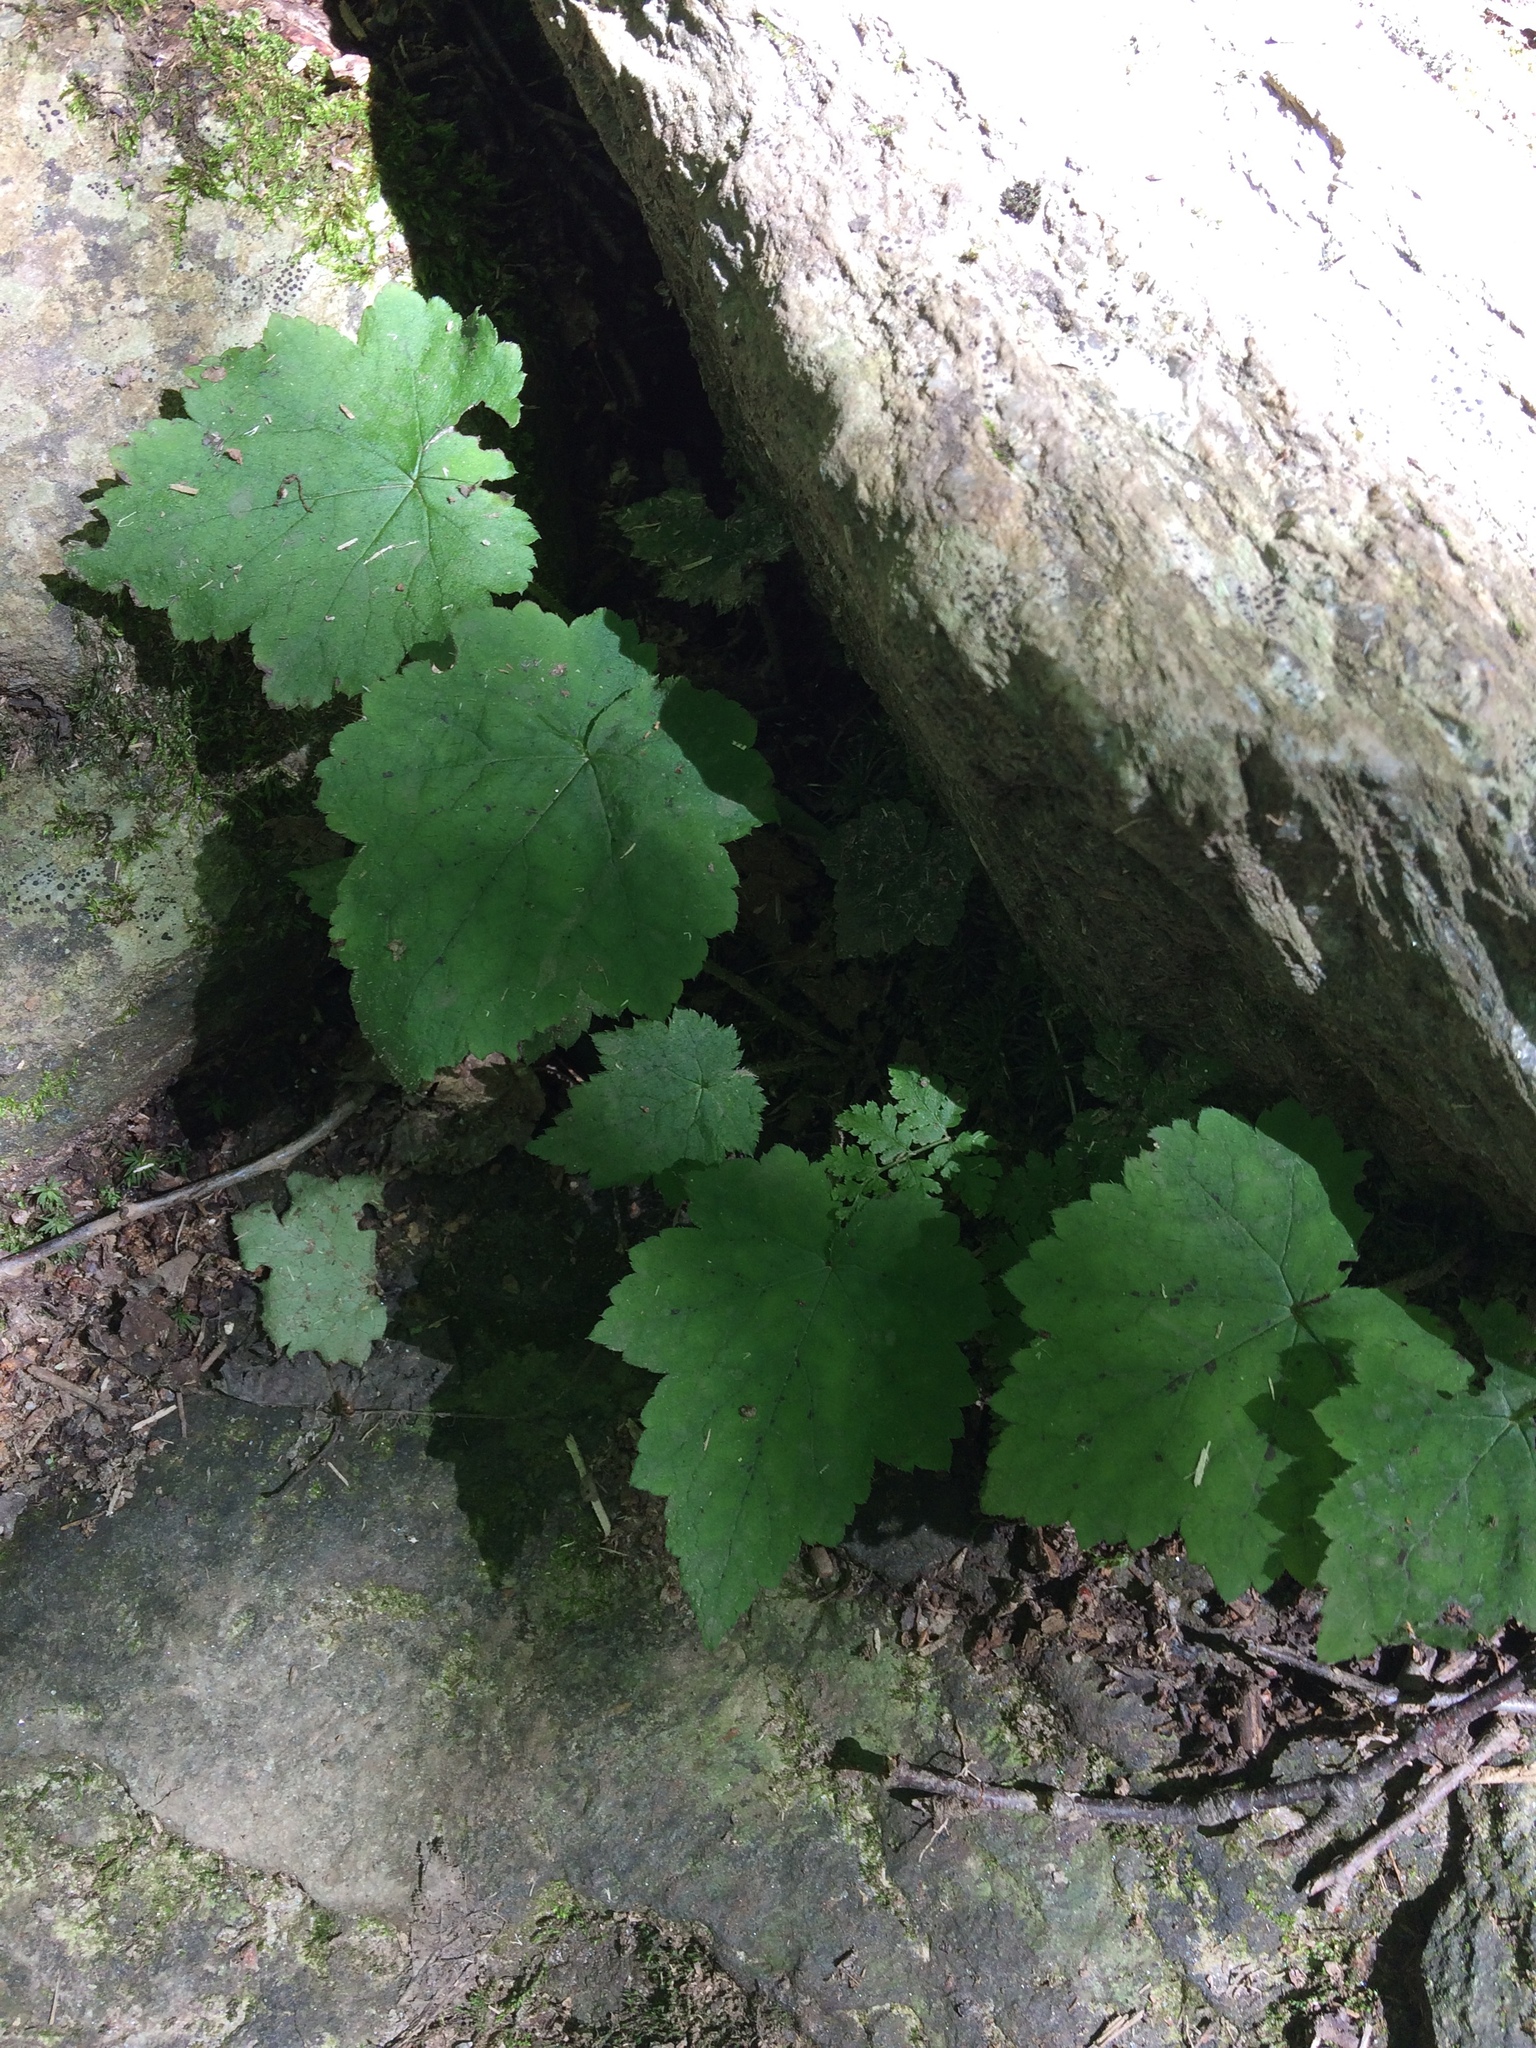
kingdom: Plantae
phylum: Tracheophyta
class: Magnoliopsida
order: Saxifragales
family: Saxifragaceae
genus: Tiarella
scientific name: Tiarella stolonifera
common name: Stoloniferous foamflower
